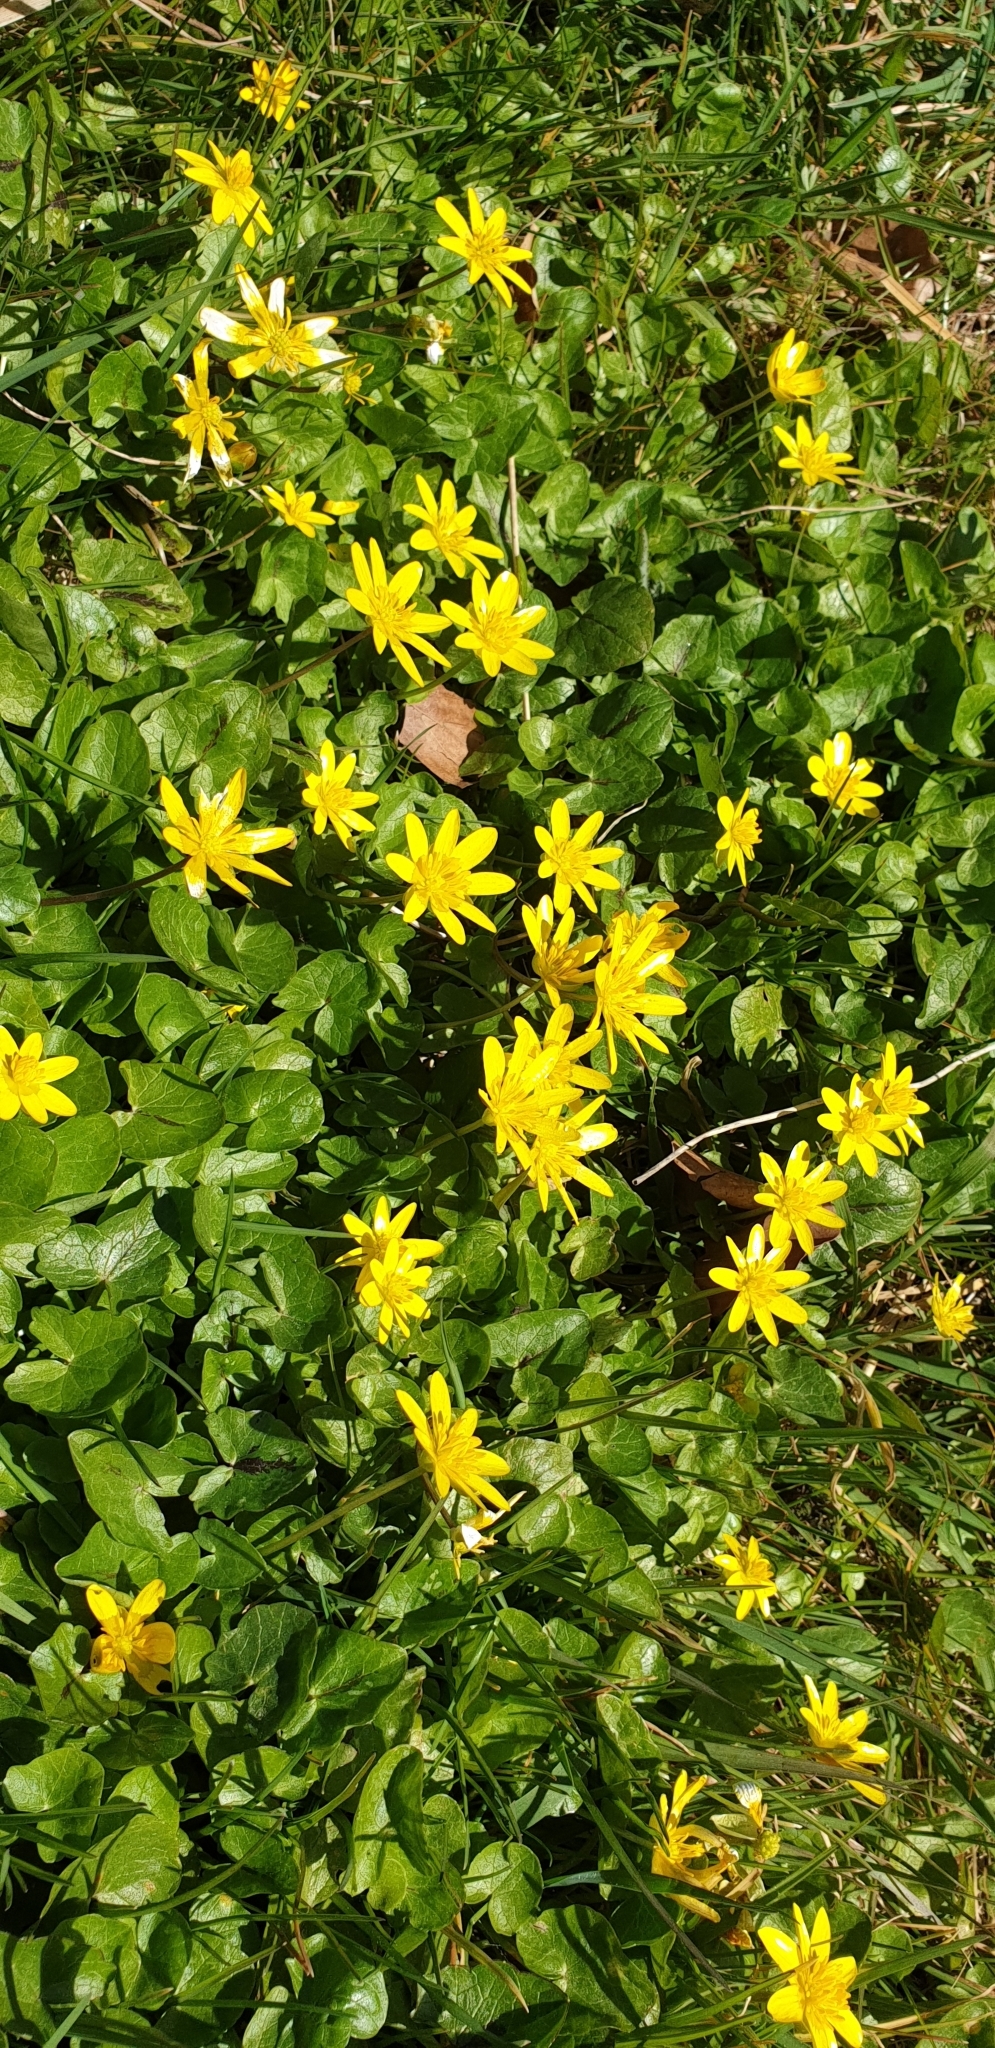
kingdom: Plantae
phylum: Tracheophyta
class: Magnoliopsida
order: Ranunculales
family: Ranunculaceae
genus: Ficaria
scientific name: Ficaria verna
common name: Lesser celandine
